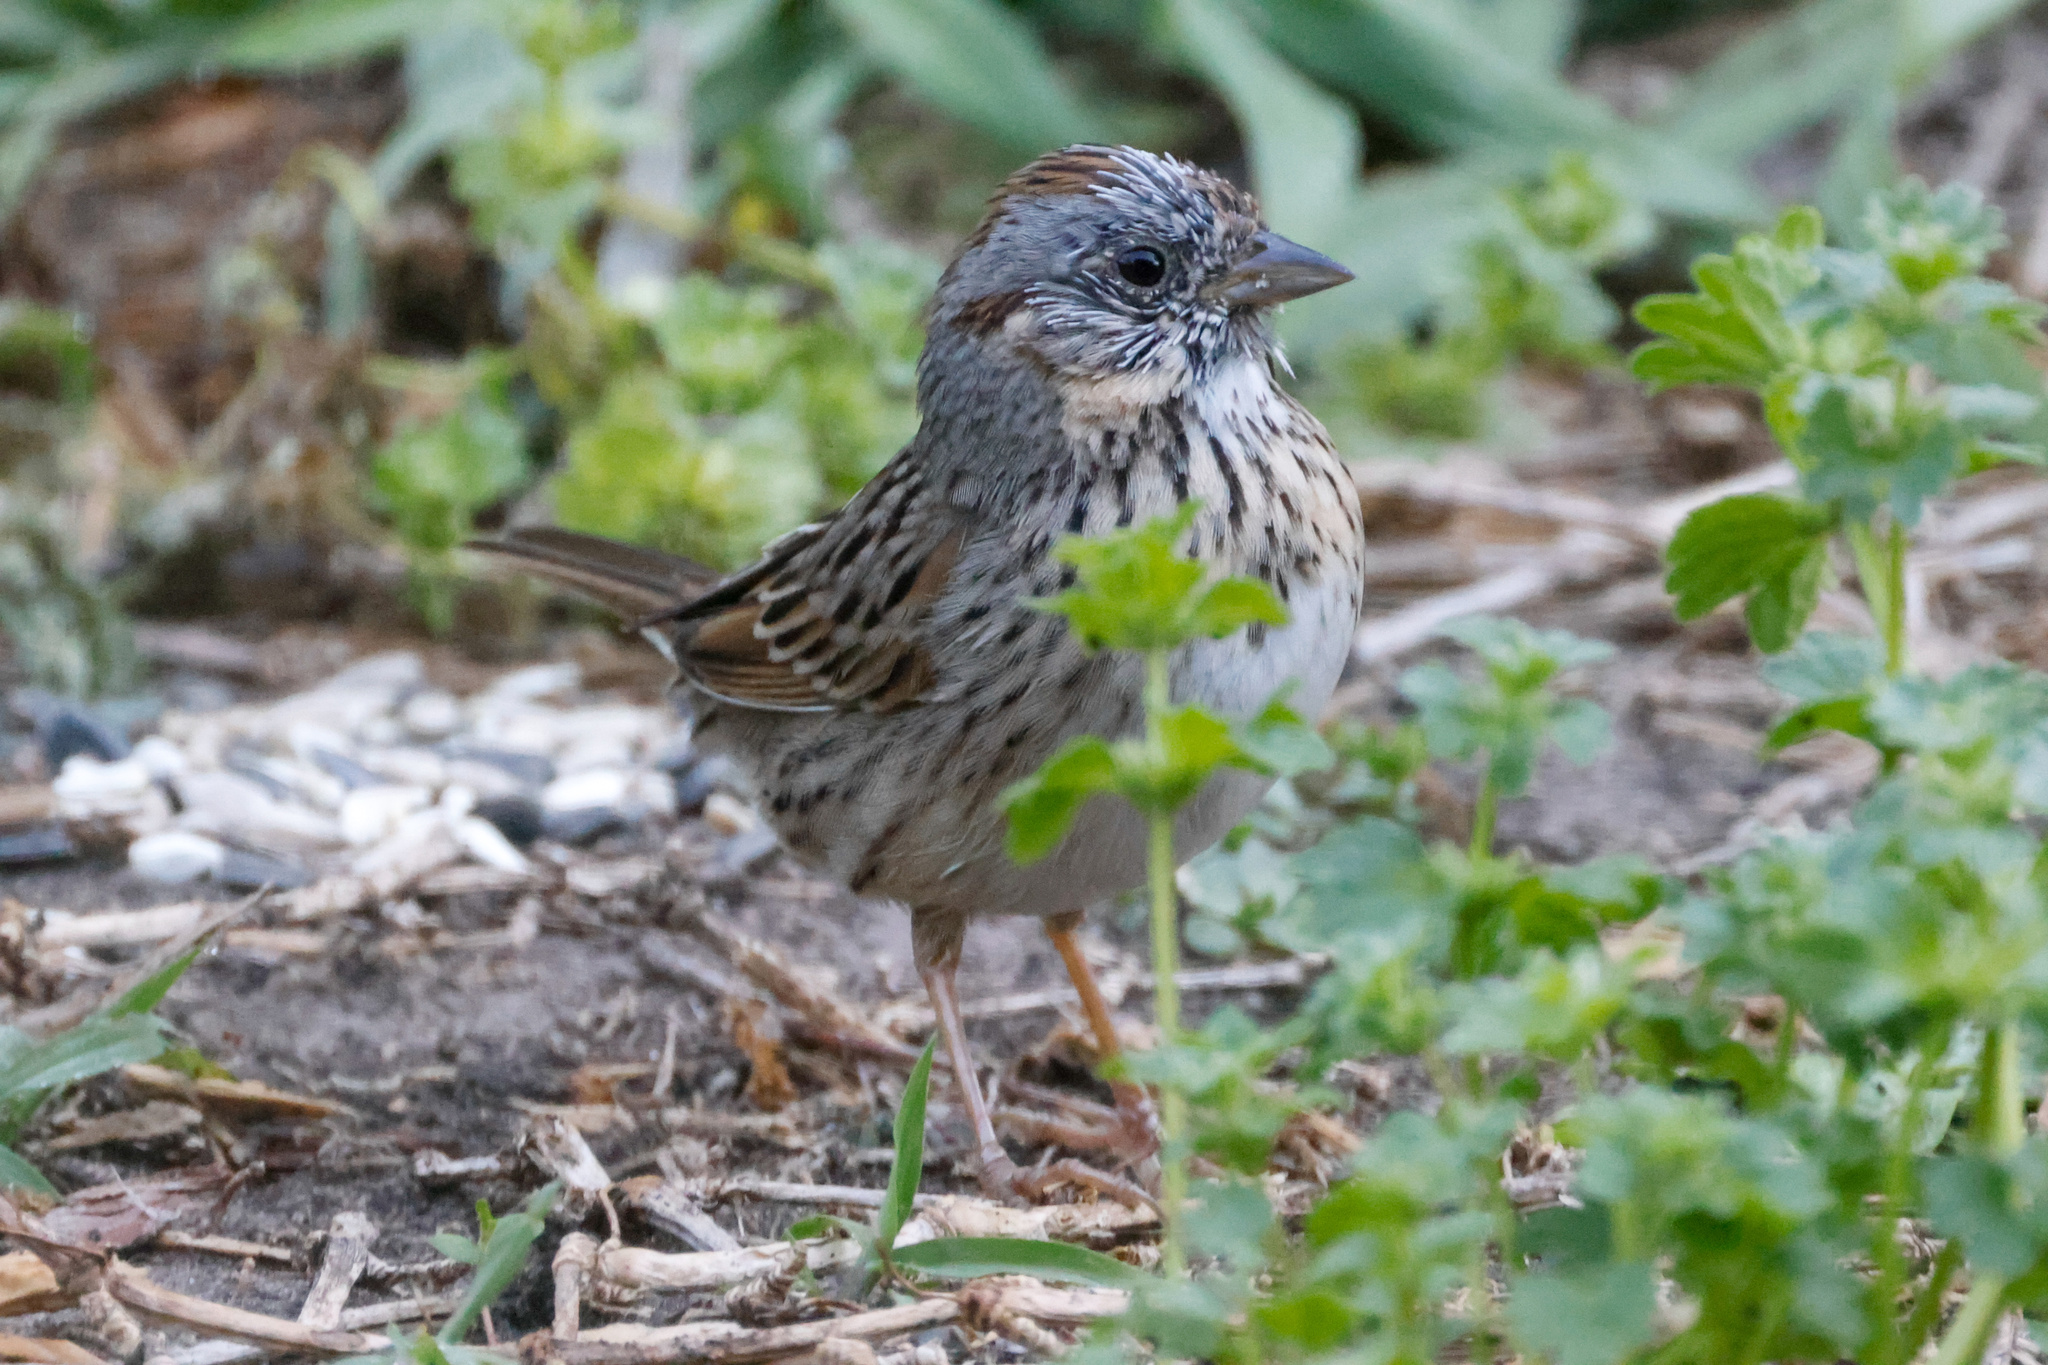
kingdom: Animalia
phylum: Chordata
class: Aves
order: Passeriformes
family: Passerellidae
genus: Melospiza
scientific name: Melospiza lincolnii
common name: Lincoln's sparrow
